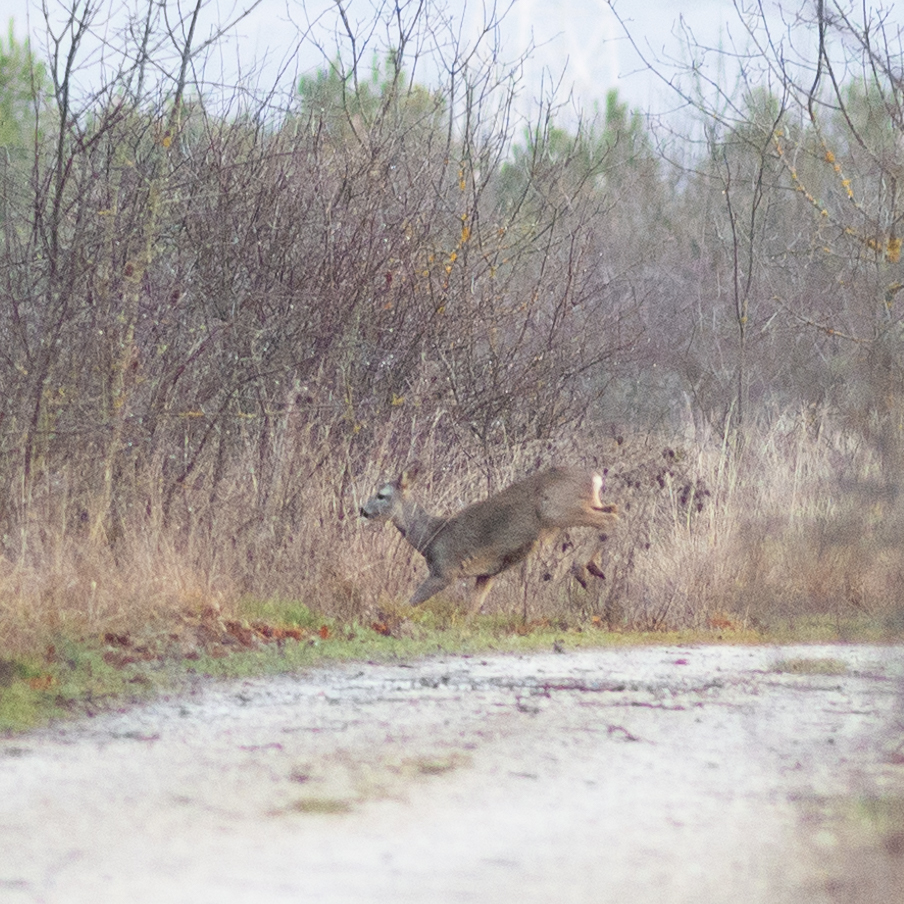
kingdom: Animalia
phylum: Chordata
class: Mammalia
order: Artiodactyla
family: Cervidae
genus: Capreolus
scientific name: Capreolus capreolus
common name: Western roe deer
